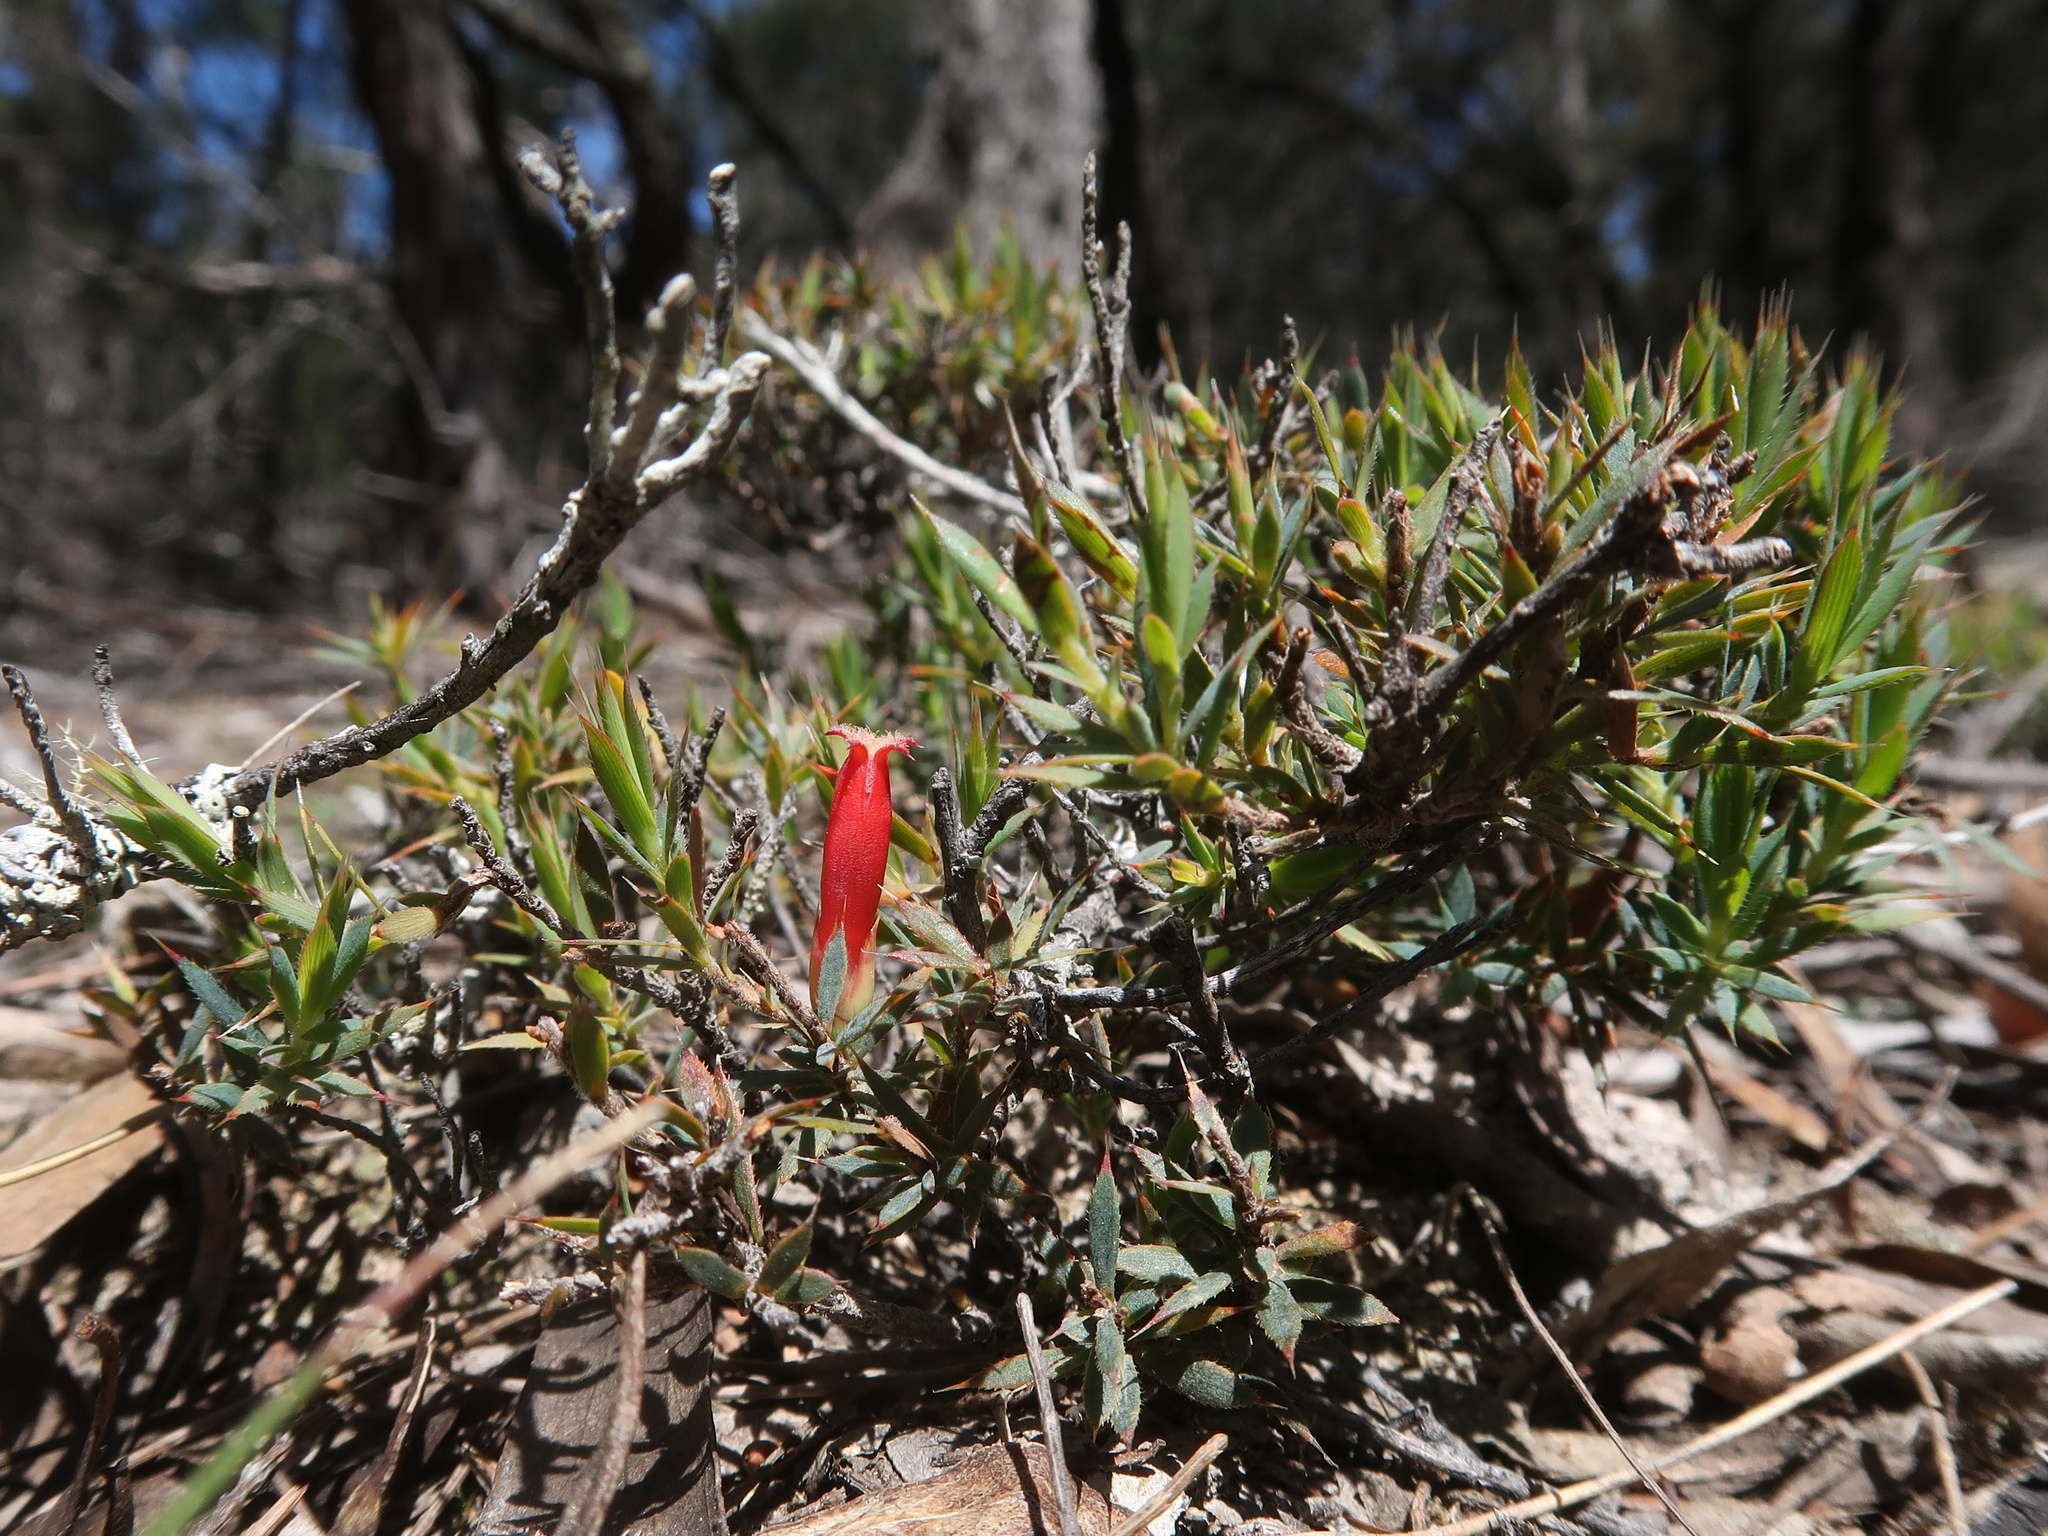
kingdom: Plantae
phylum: Tracheophyta
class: Magnoliopsida
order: Ericales
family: Ericaceae
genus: Styphelia
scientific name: Styphelia humifusa
